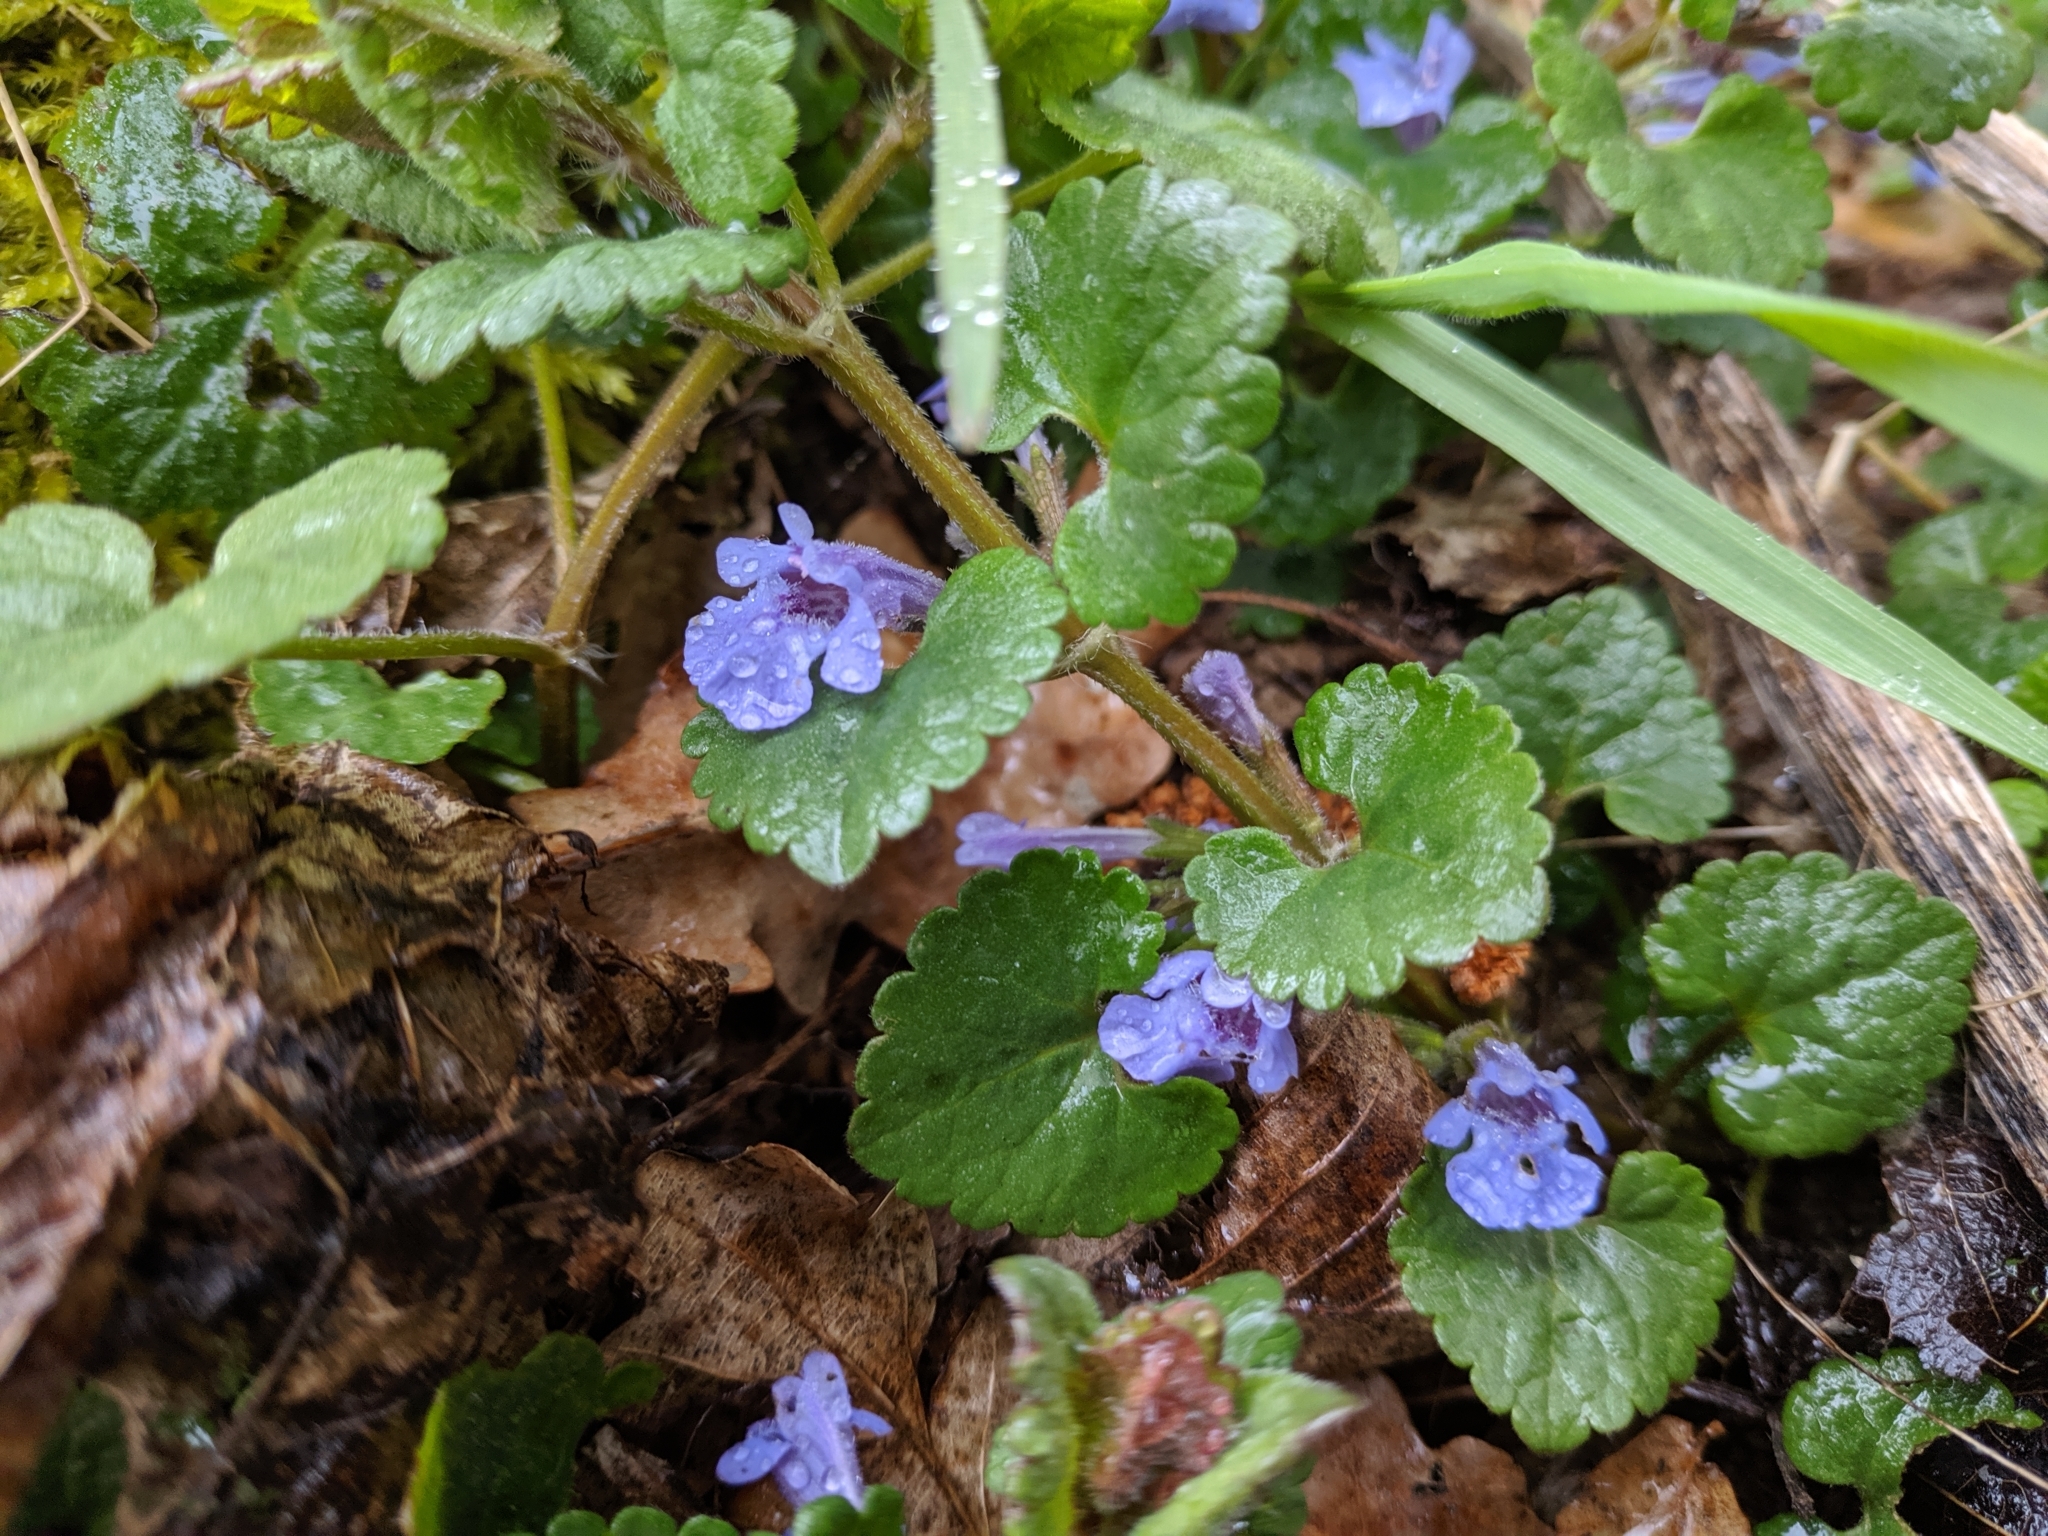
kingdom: Plantae
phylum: Tracheophyta
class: Magnoliopsida
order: Lamiales
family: Lamiaceae
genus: Glechoma
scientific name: Glechoma hederacea
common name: Ground ivy
